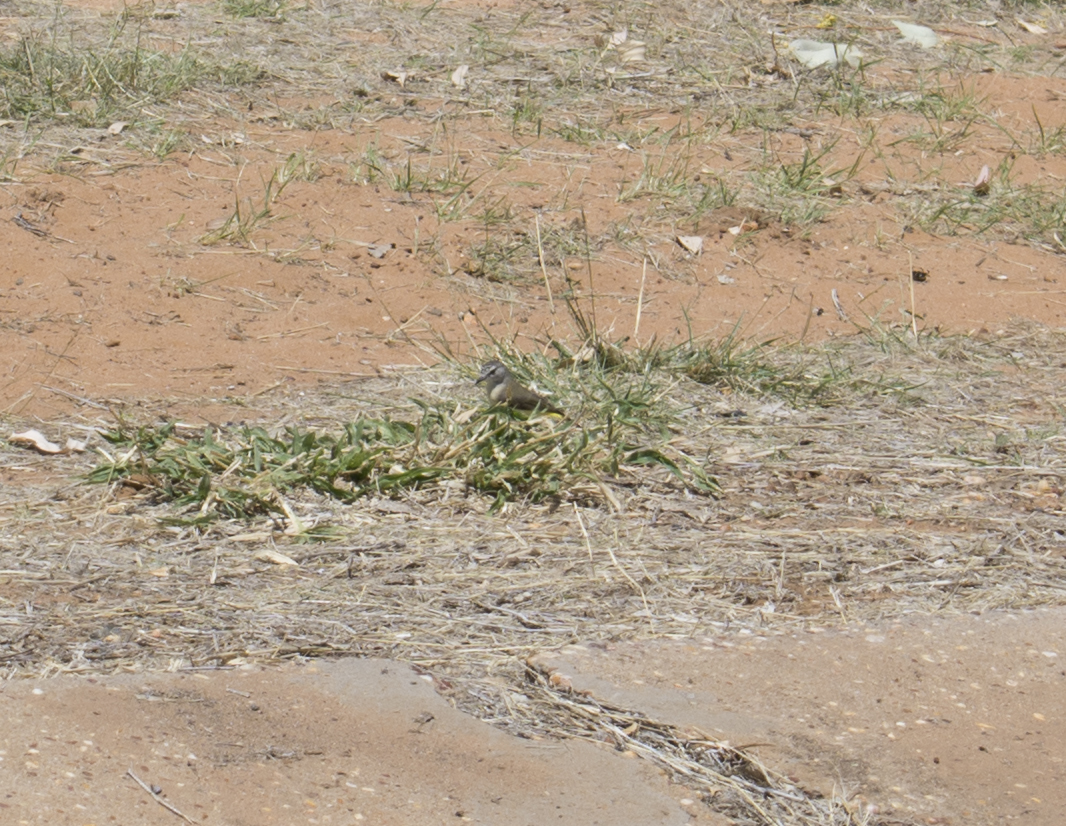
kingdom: Animalia
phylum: Chordata
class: Aves
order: Passeriformes
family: Acanthizidae
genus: Acanthiza
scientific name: Acanthiza chrysorrhoa
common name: Yellow-rumped thornbill
